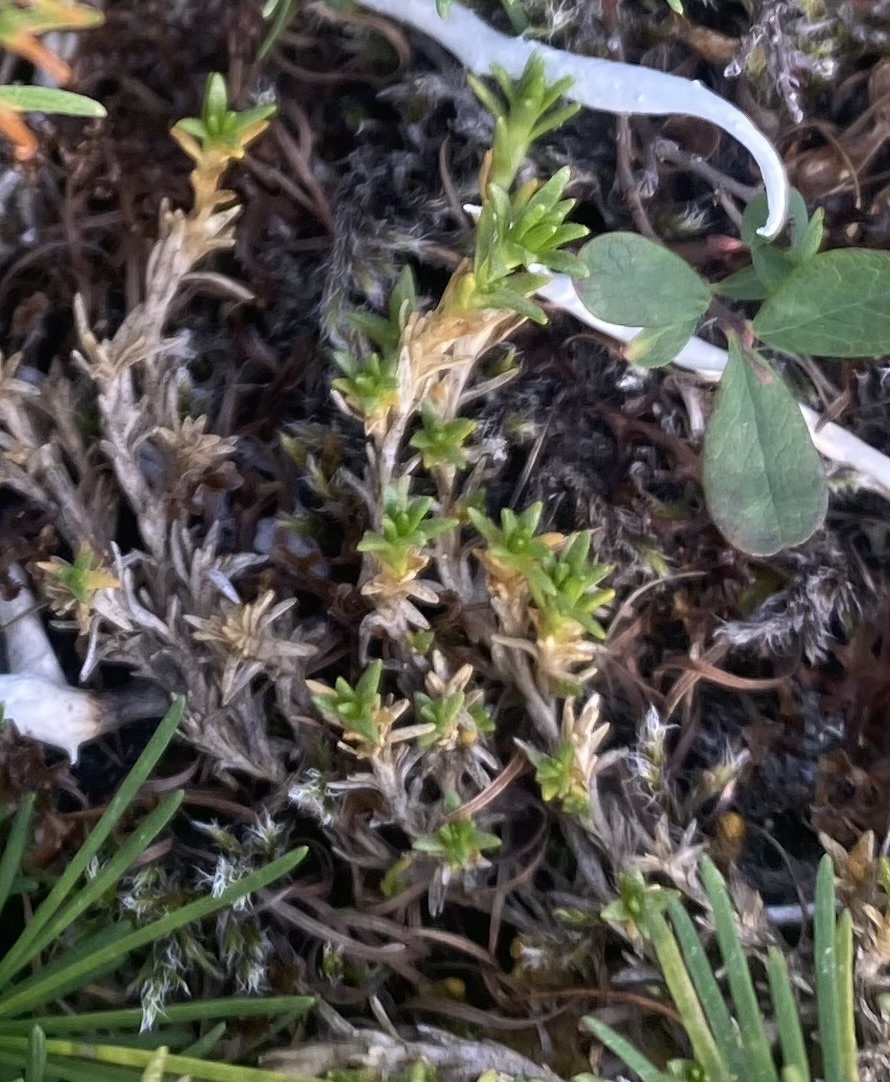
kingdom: Plantae
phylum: Tracheophyta
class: Magnoliopsida
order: Caryophyllales
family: Caryophyllaceae
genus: Cherleria
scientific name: Cherleria arctica
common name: Arctic sandwort
